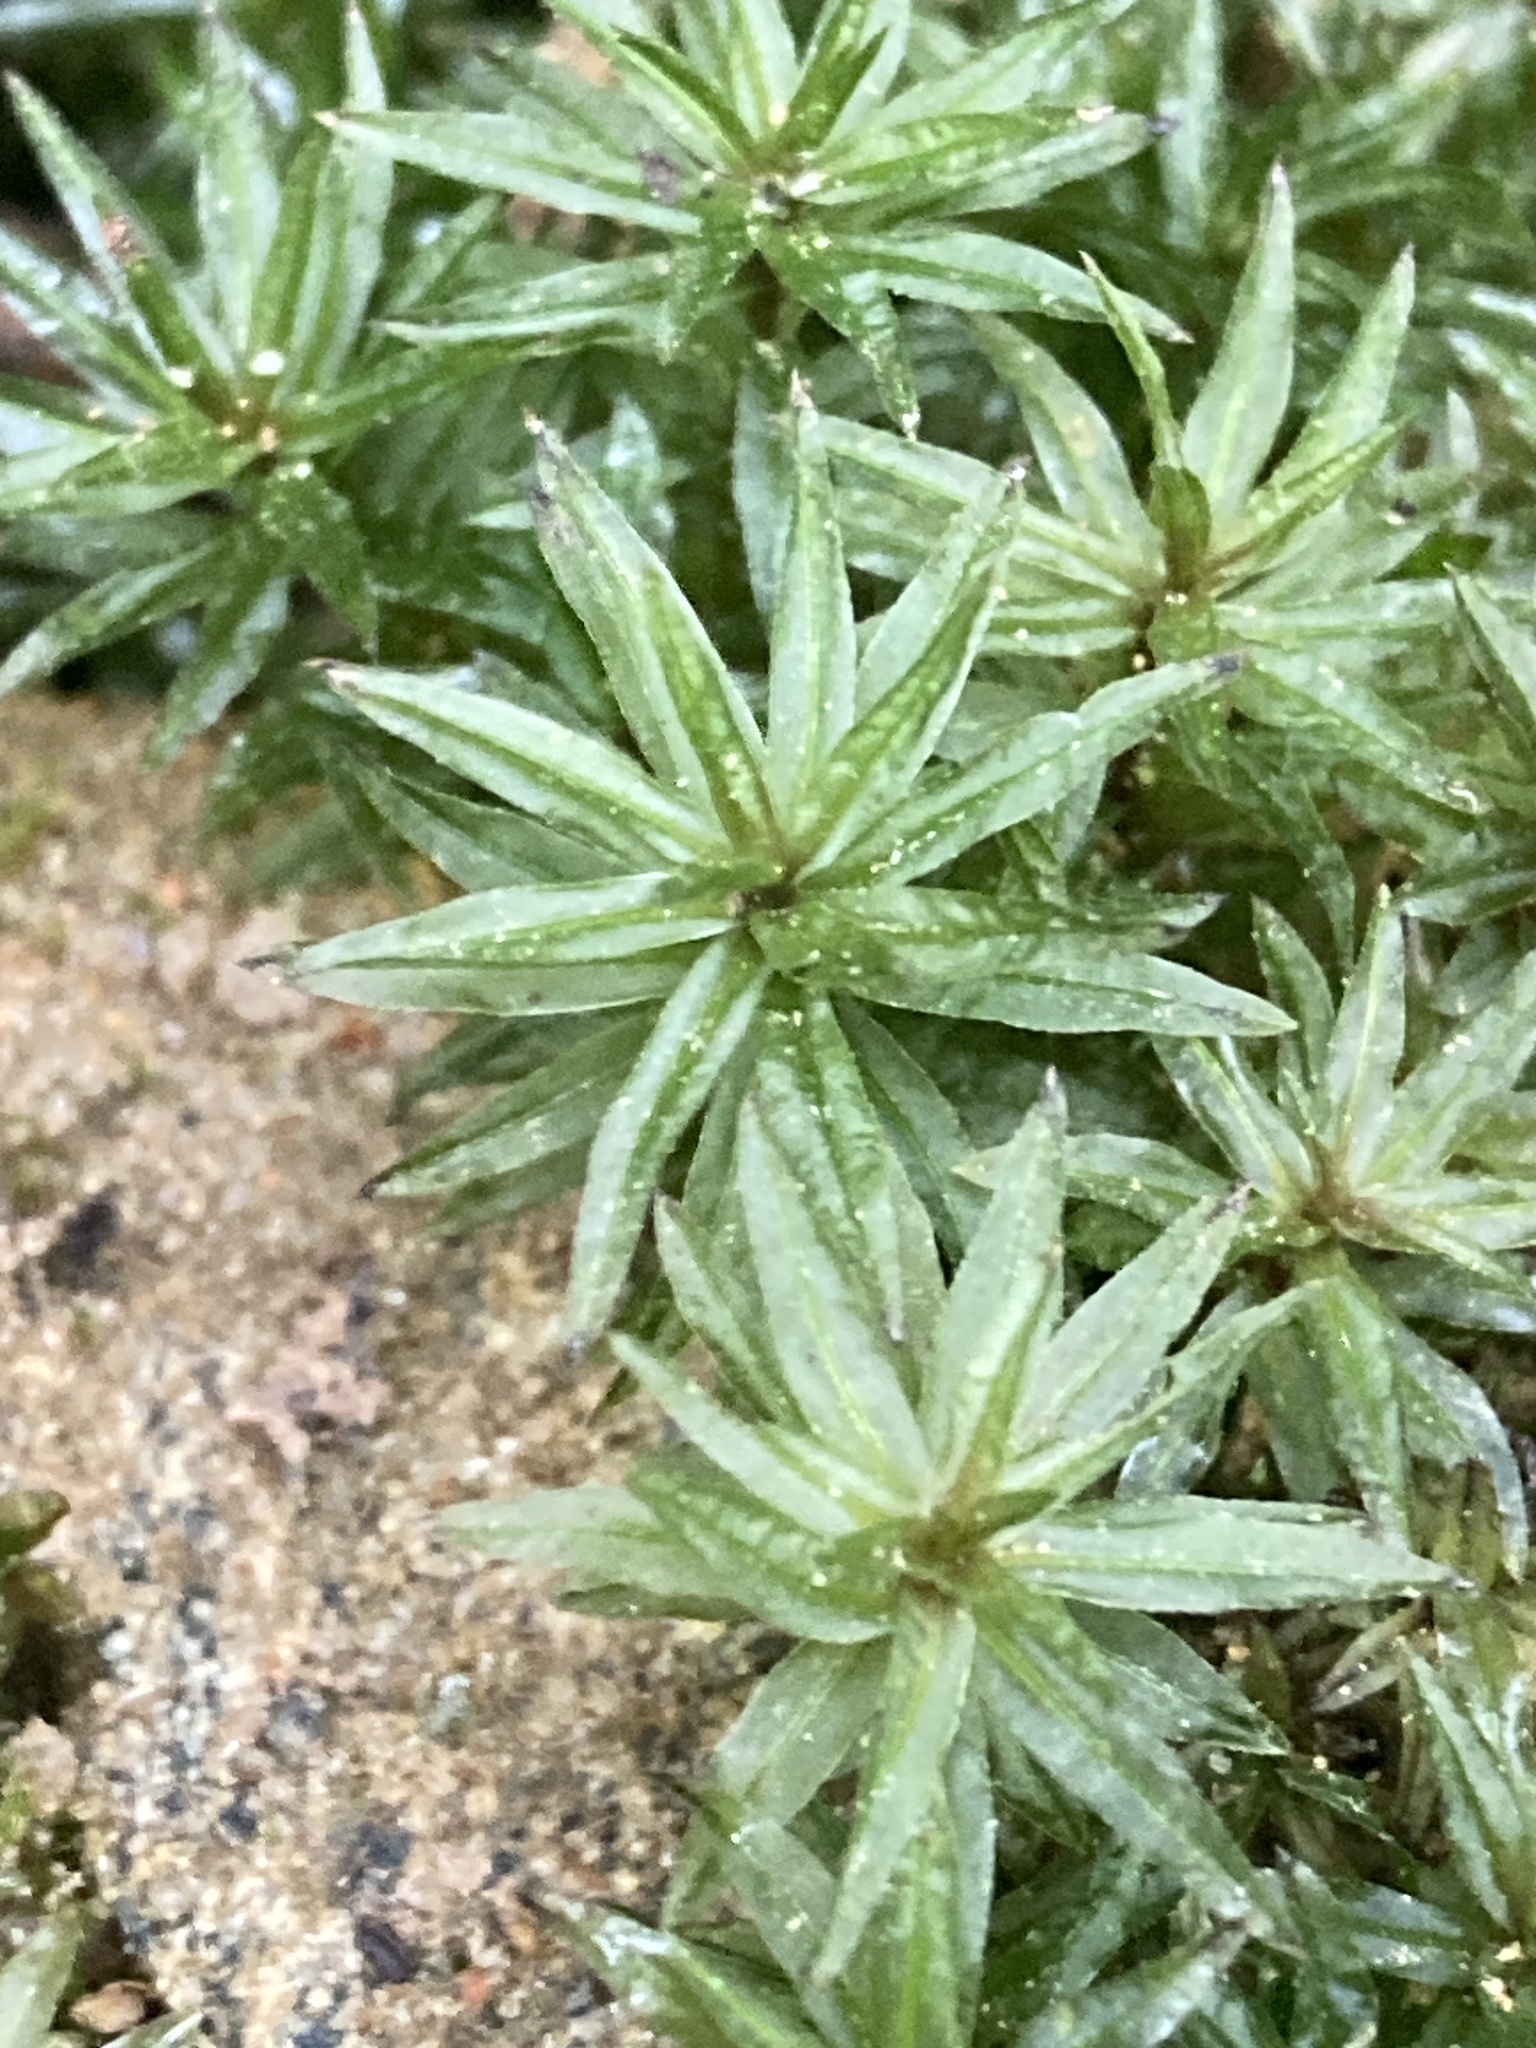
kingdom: Plantae
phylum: Bryophyta
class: Polytrichopsida
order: Polytrichales
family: Polytrichaceae
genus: Atrichum
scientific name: Atrichum undulatum
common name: Common smoothcap
